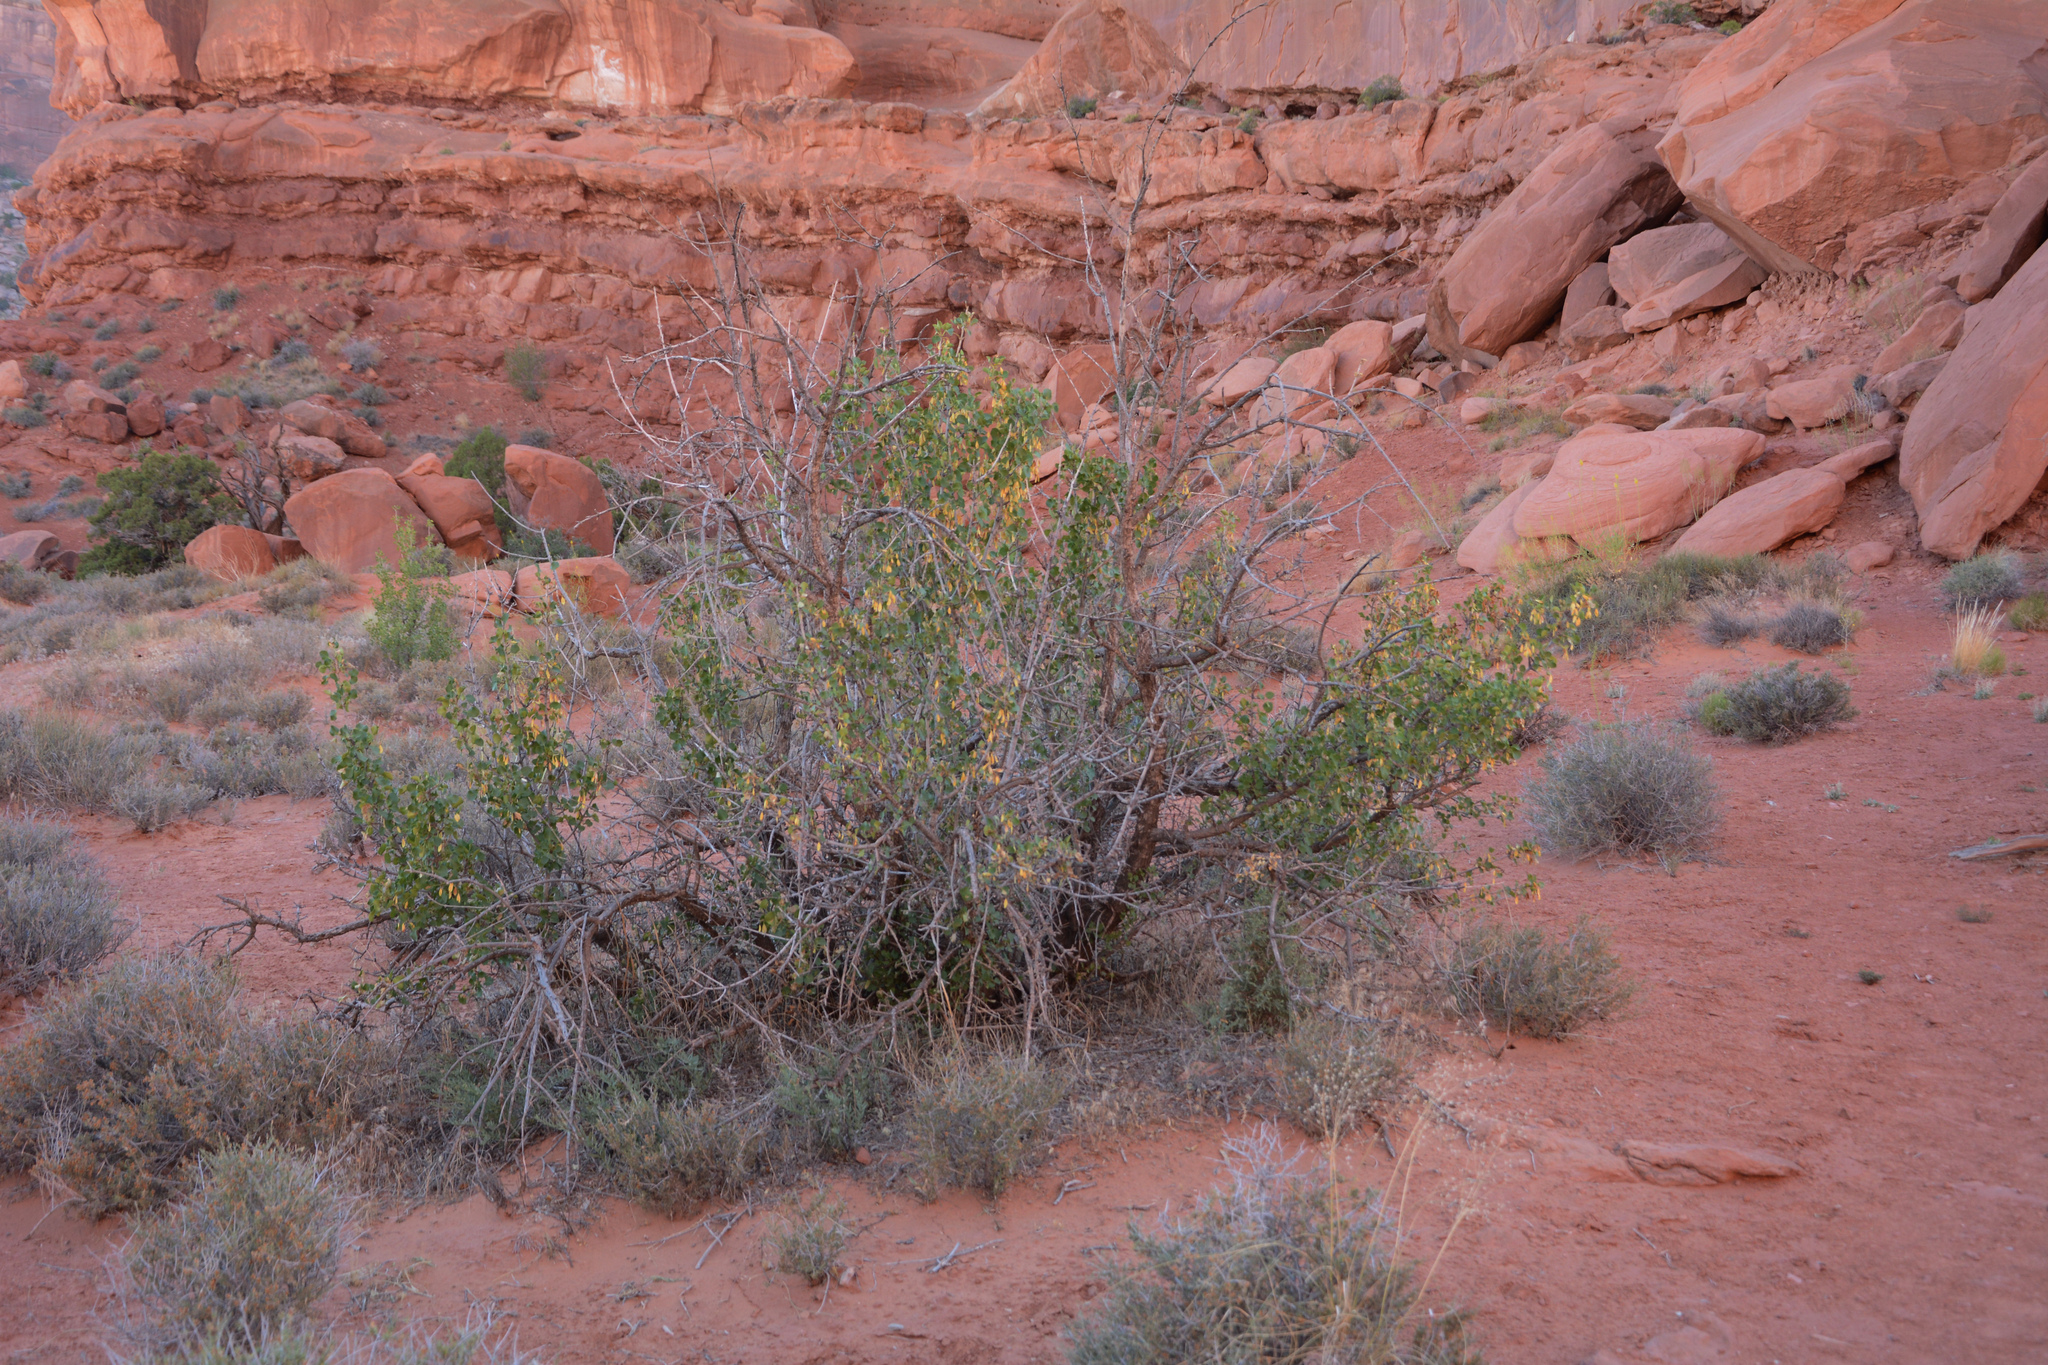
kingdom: Plantae
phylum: Tracheophyta
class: Magnoliopsida
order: Lamiales
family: Oleaceae
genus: Fraxinus
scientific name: Fraxinus anomala
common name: Utah ash
